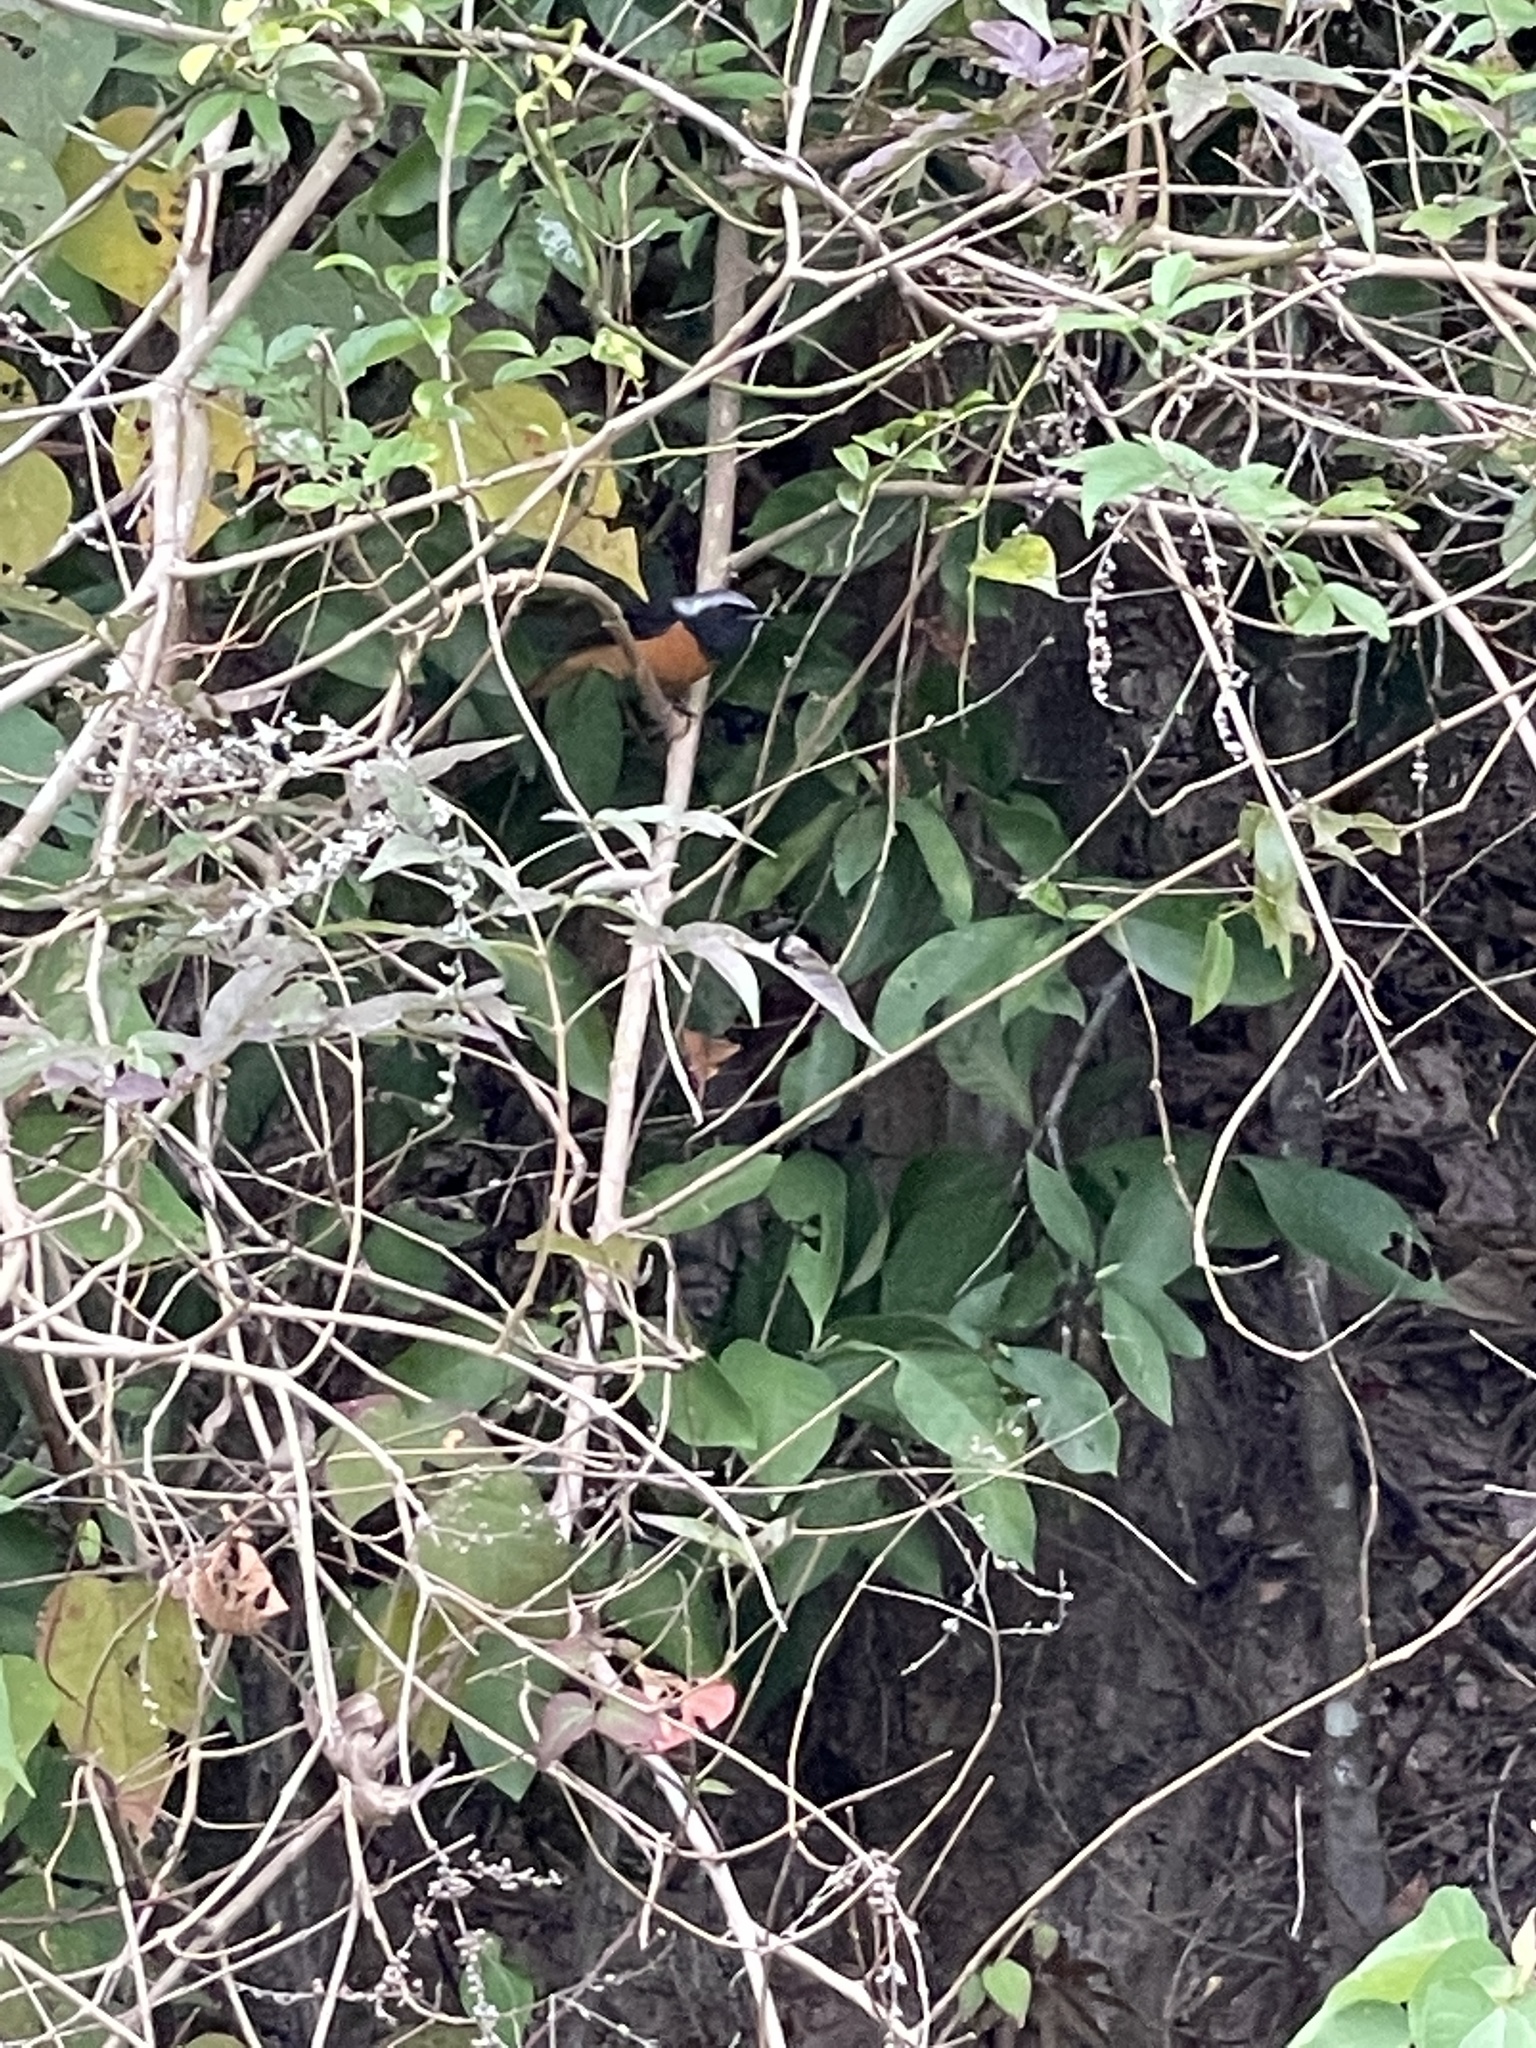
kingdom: Animalia
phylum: Chordata
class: Aves
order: Passeriformes
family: Muscicapidae
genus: Phoenicurus
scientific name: Phoenicurus auroreus
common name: Daurian redstart
